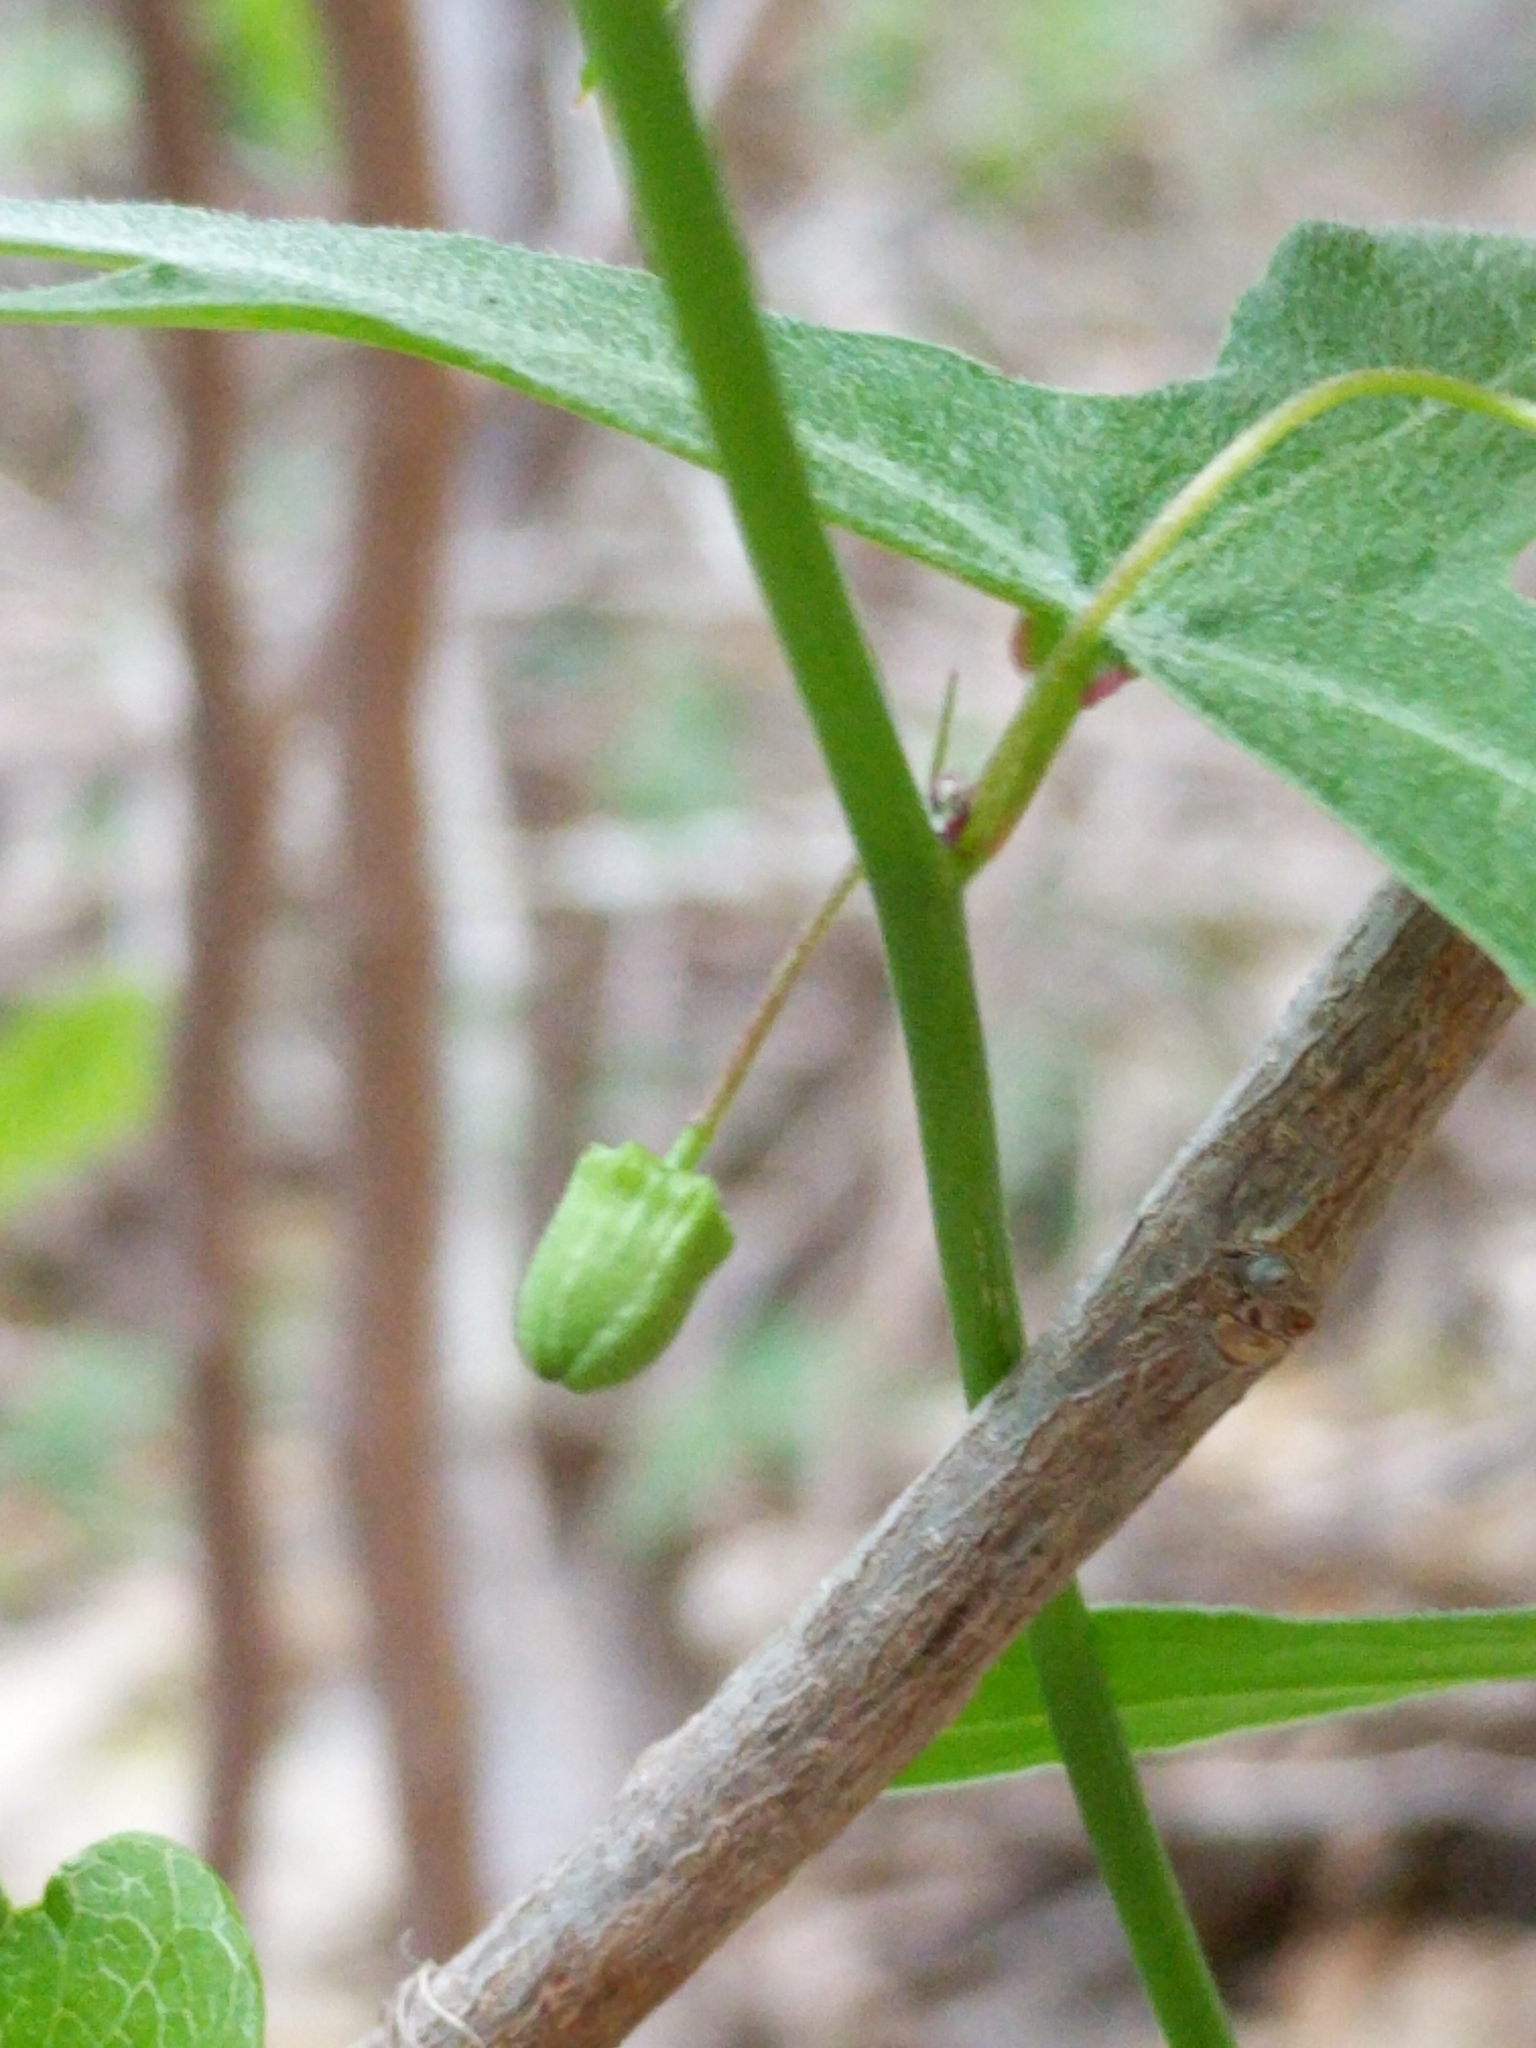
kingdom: Plantae
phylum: Tracheophyta
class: Magnoliopsida
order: Malpighiales
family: Passifloraceae
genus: Passiflora
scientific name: Passiflora tenuiloba
